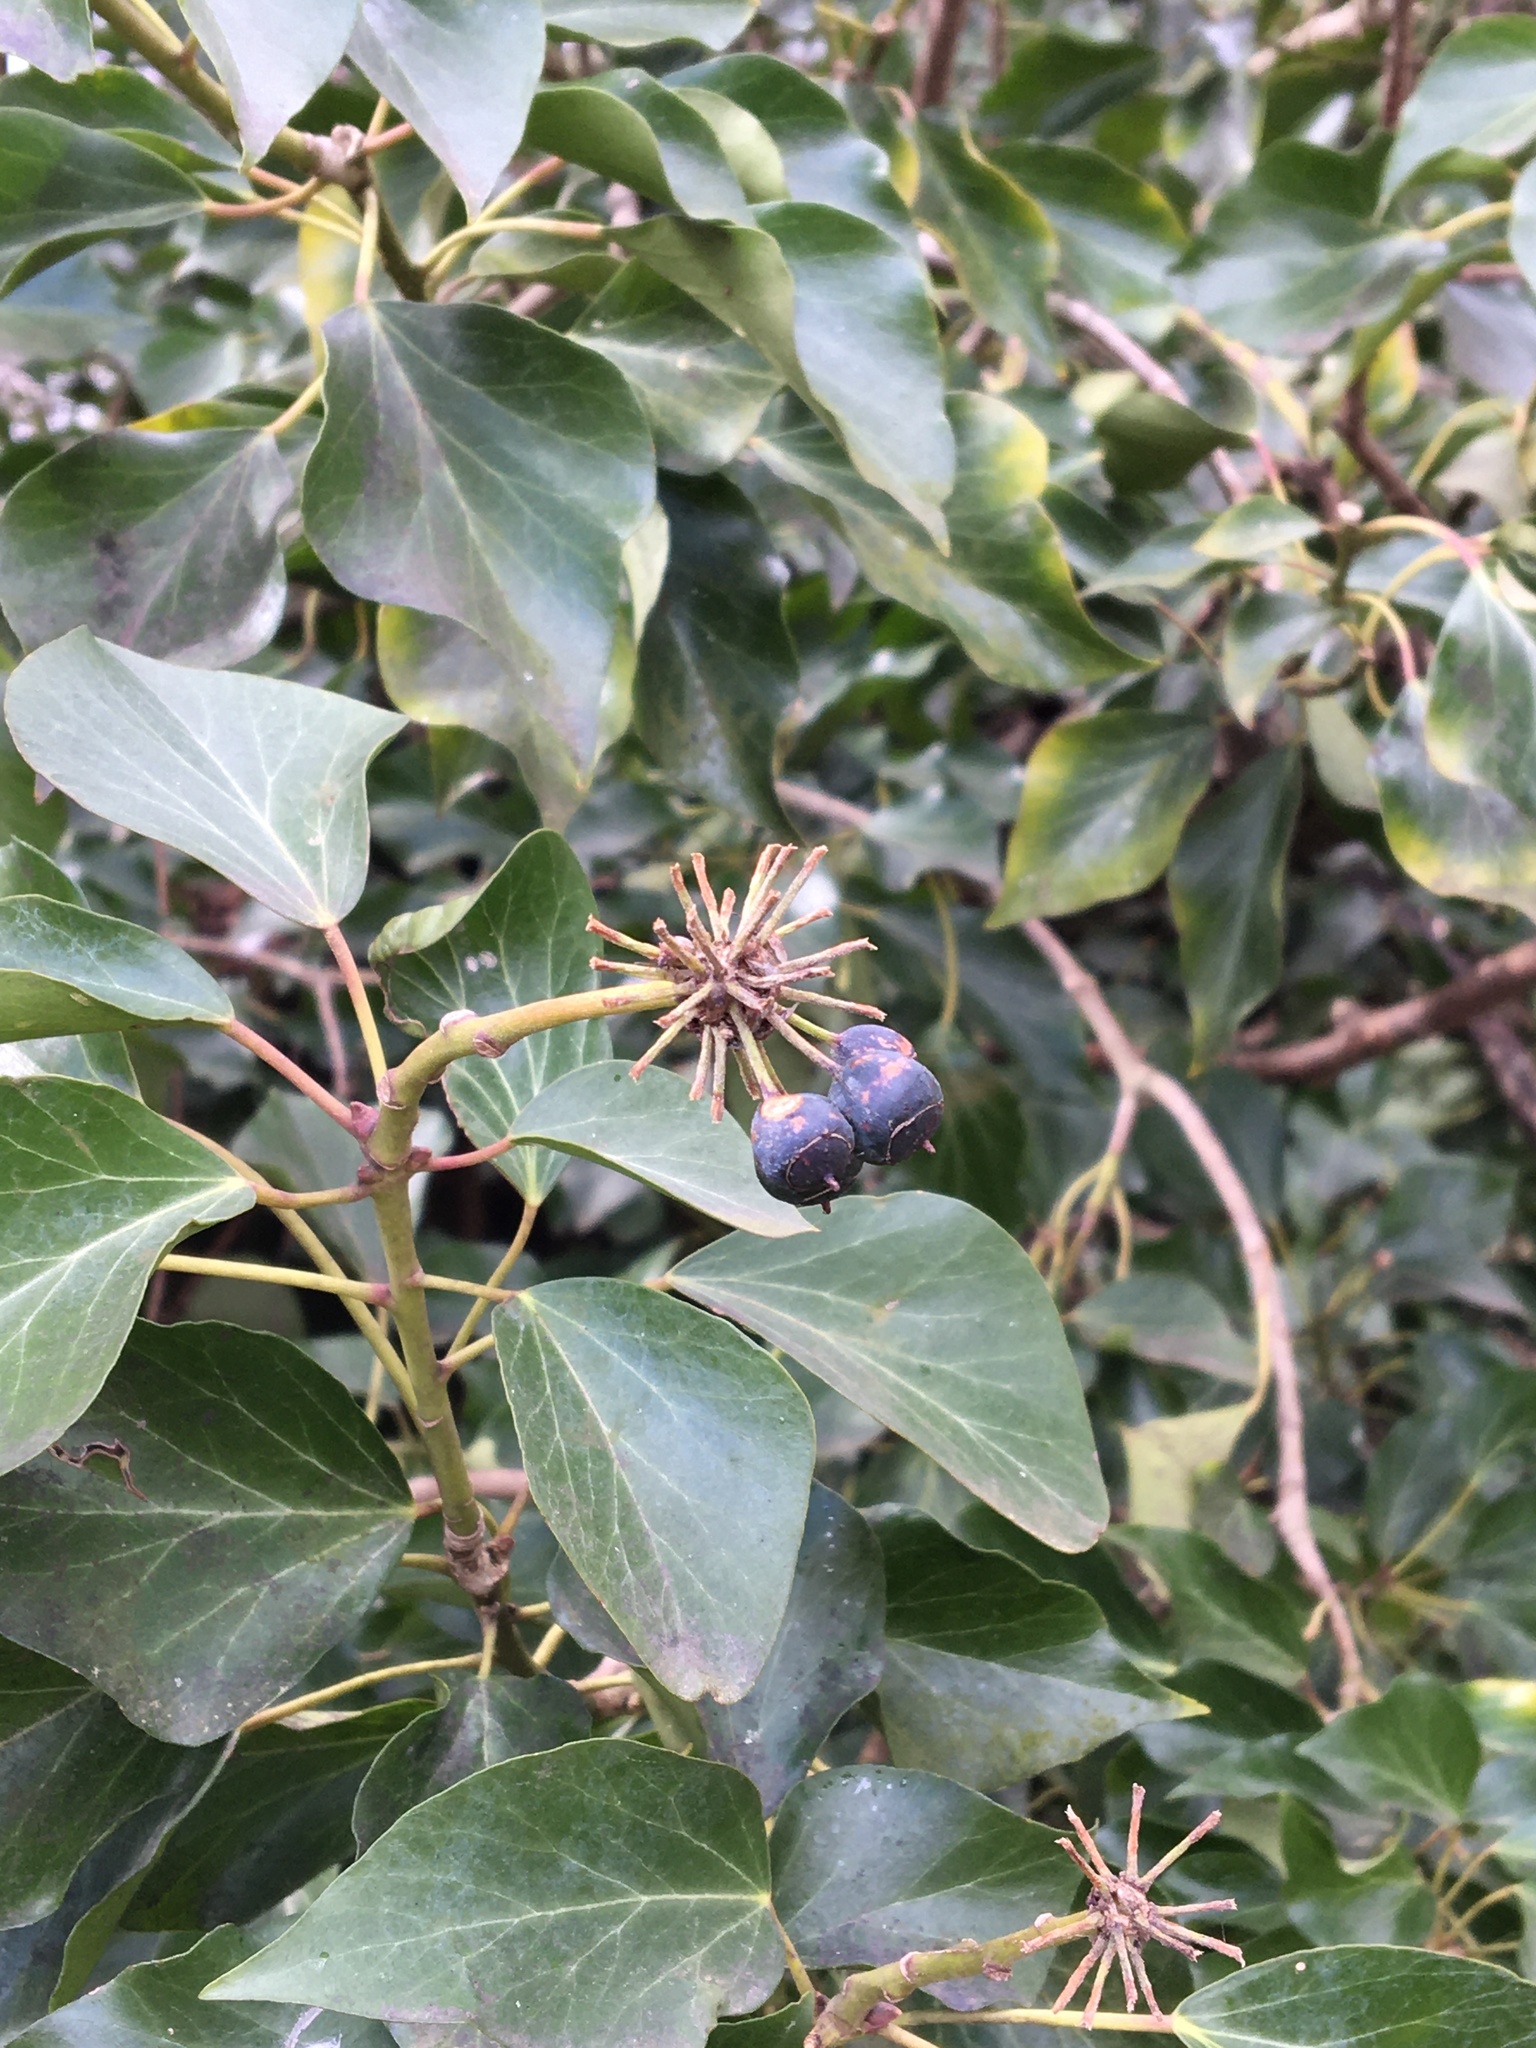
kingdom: Plantae
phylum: Tracheophyta
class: Magnoliopsida
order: Apiales
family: Araliaceae
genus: Hedera
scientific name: Hedera helix
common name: Ivy
